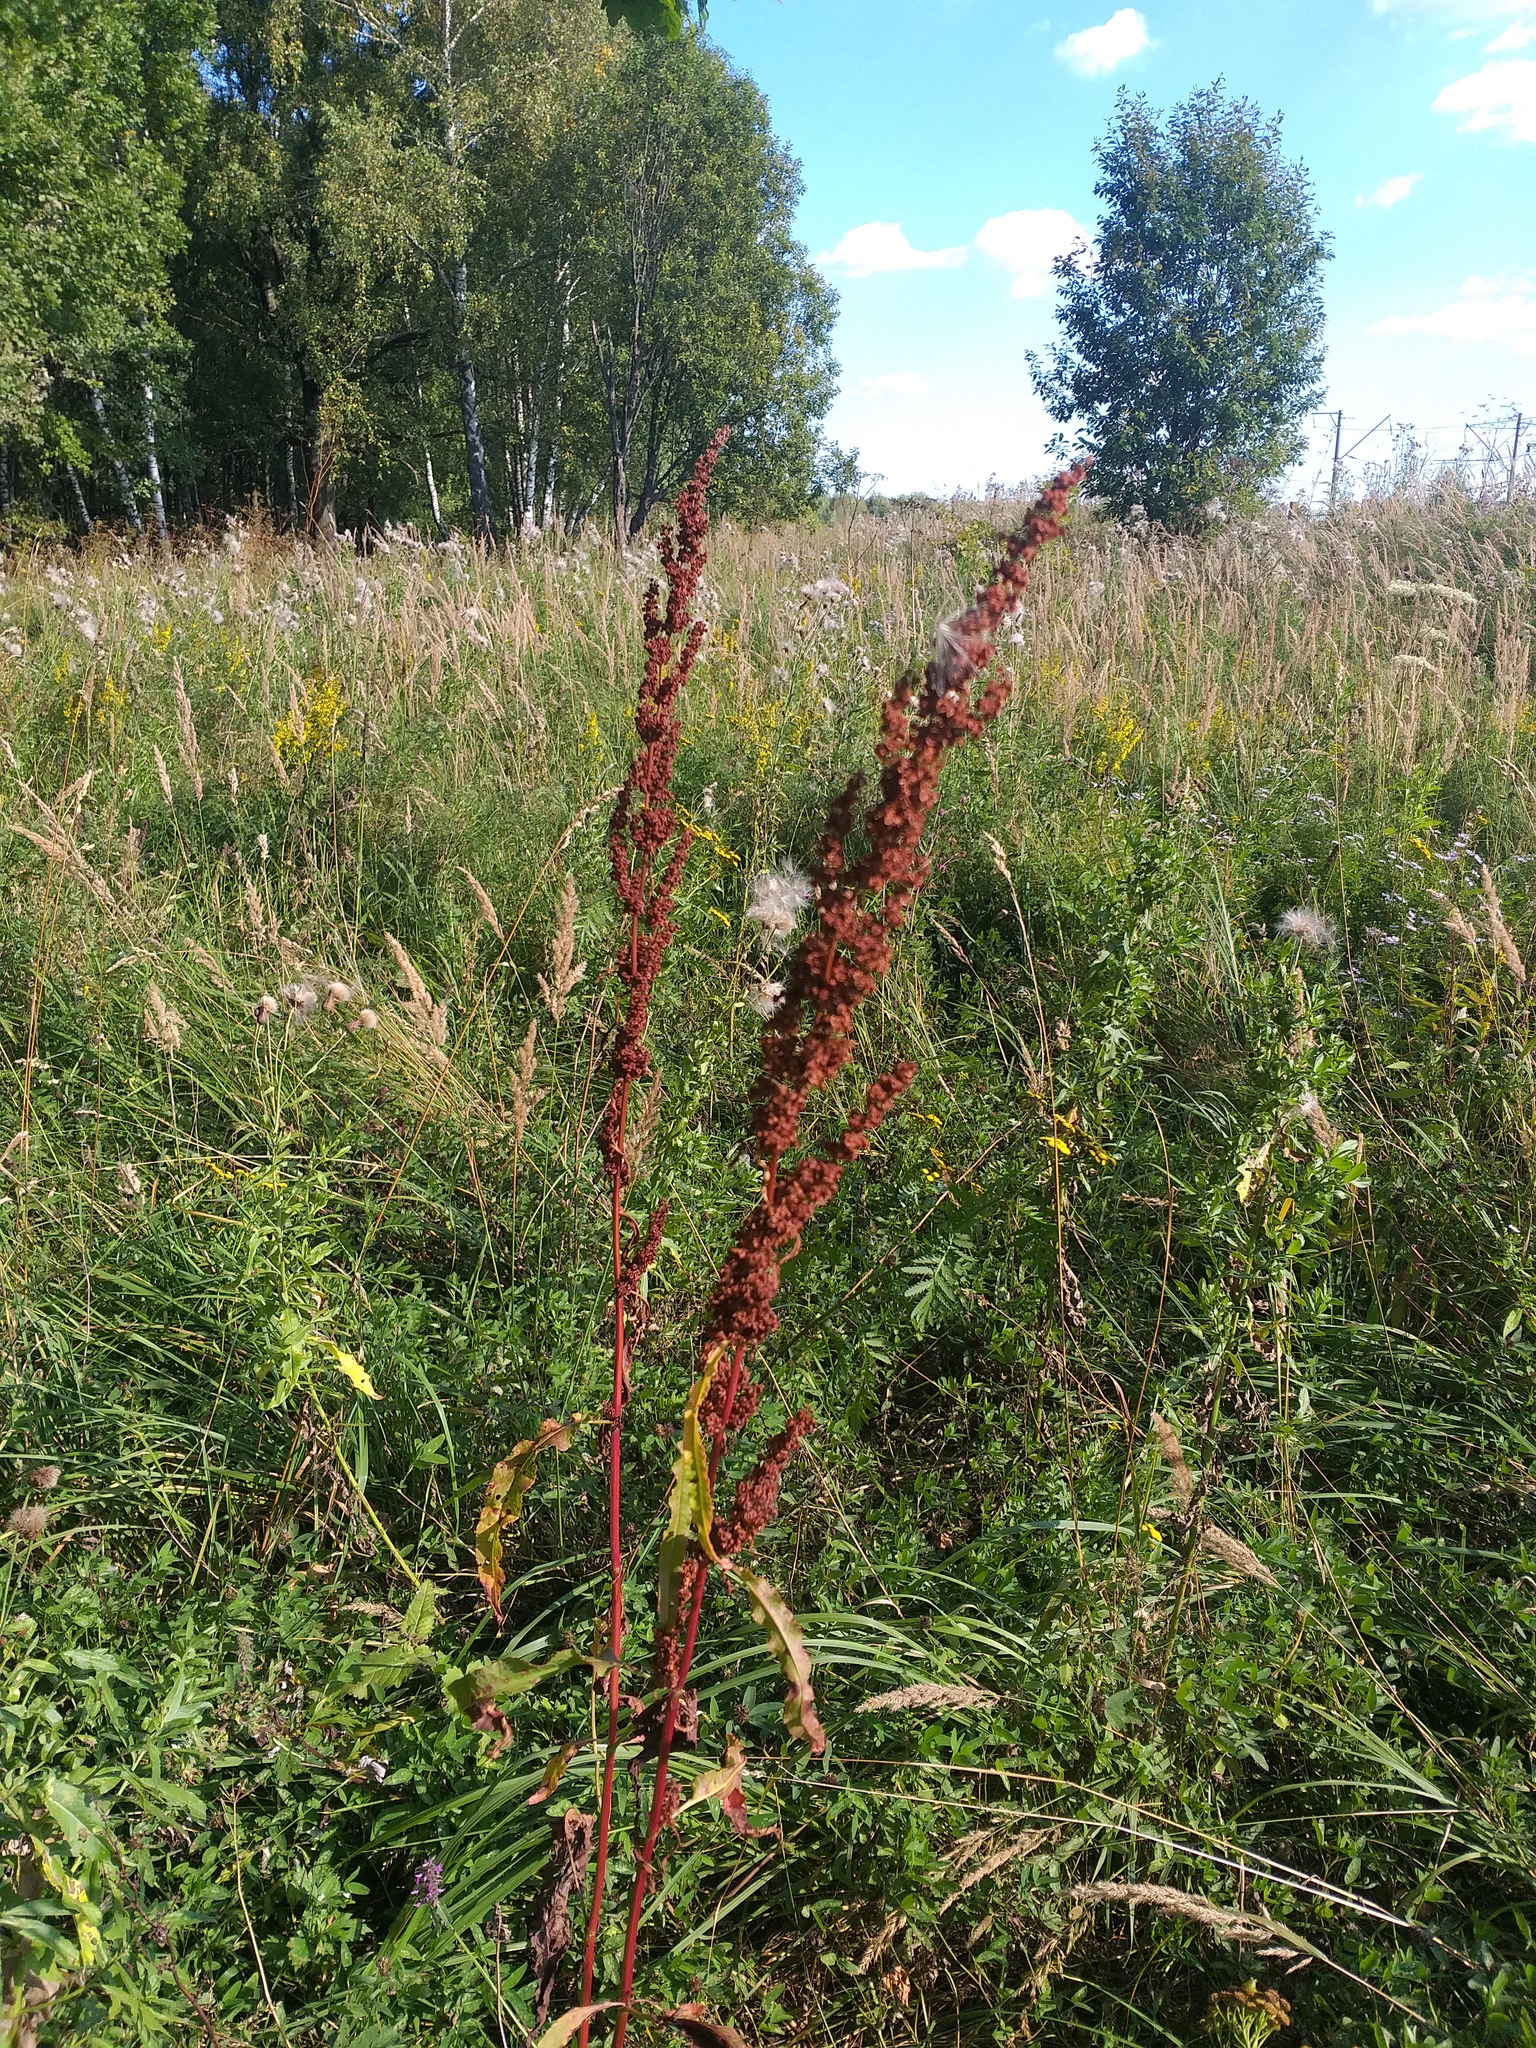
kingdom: Plantae
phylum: Tracheophyta
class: Magnoliopsida
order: Caryophyllales
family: Polygonaceae
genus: Rumex
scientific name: Rumex crispus
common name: Curled dock
